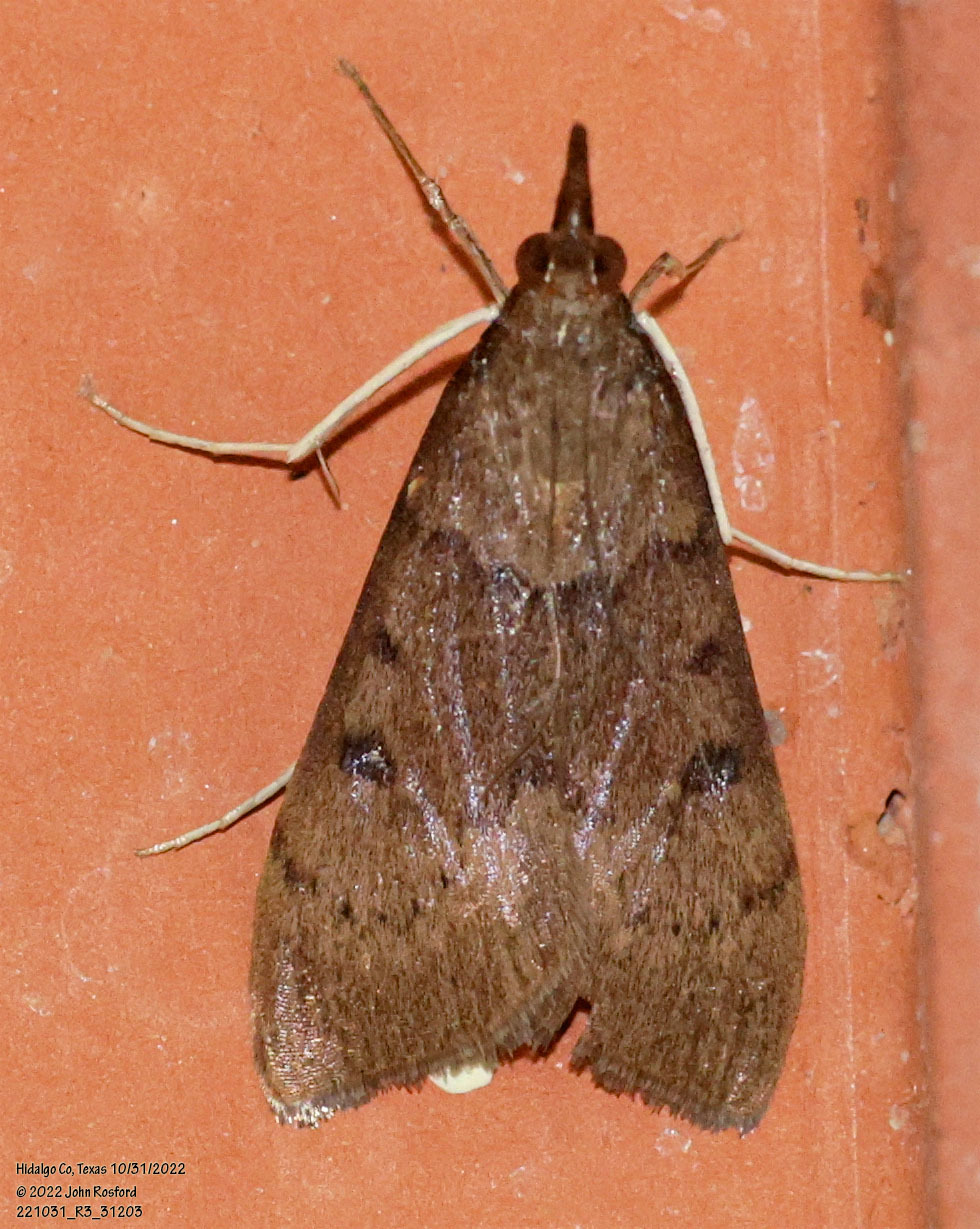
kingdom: Animalia
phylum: Arthropoda
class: Insecta
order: Lepidoptera
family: Crambidae
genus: Uresiphita
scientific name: Uresiphita reversalis
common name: Genista broom moth
